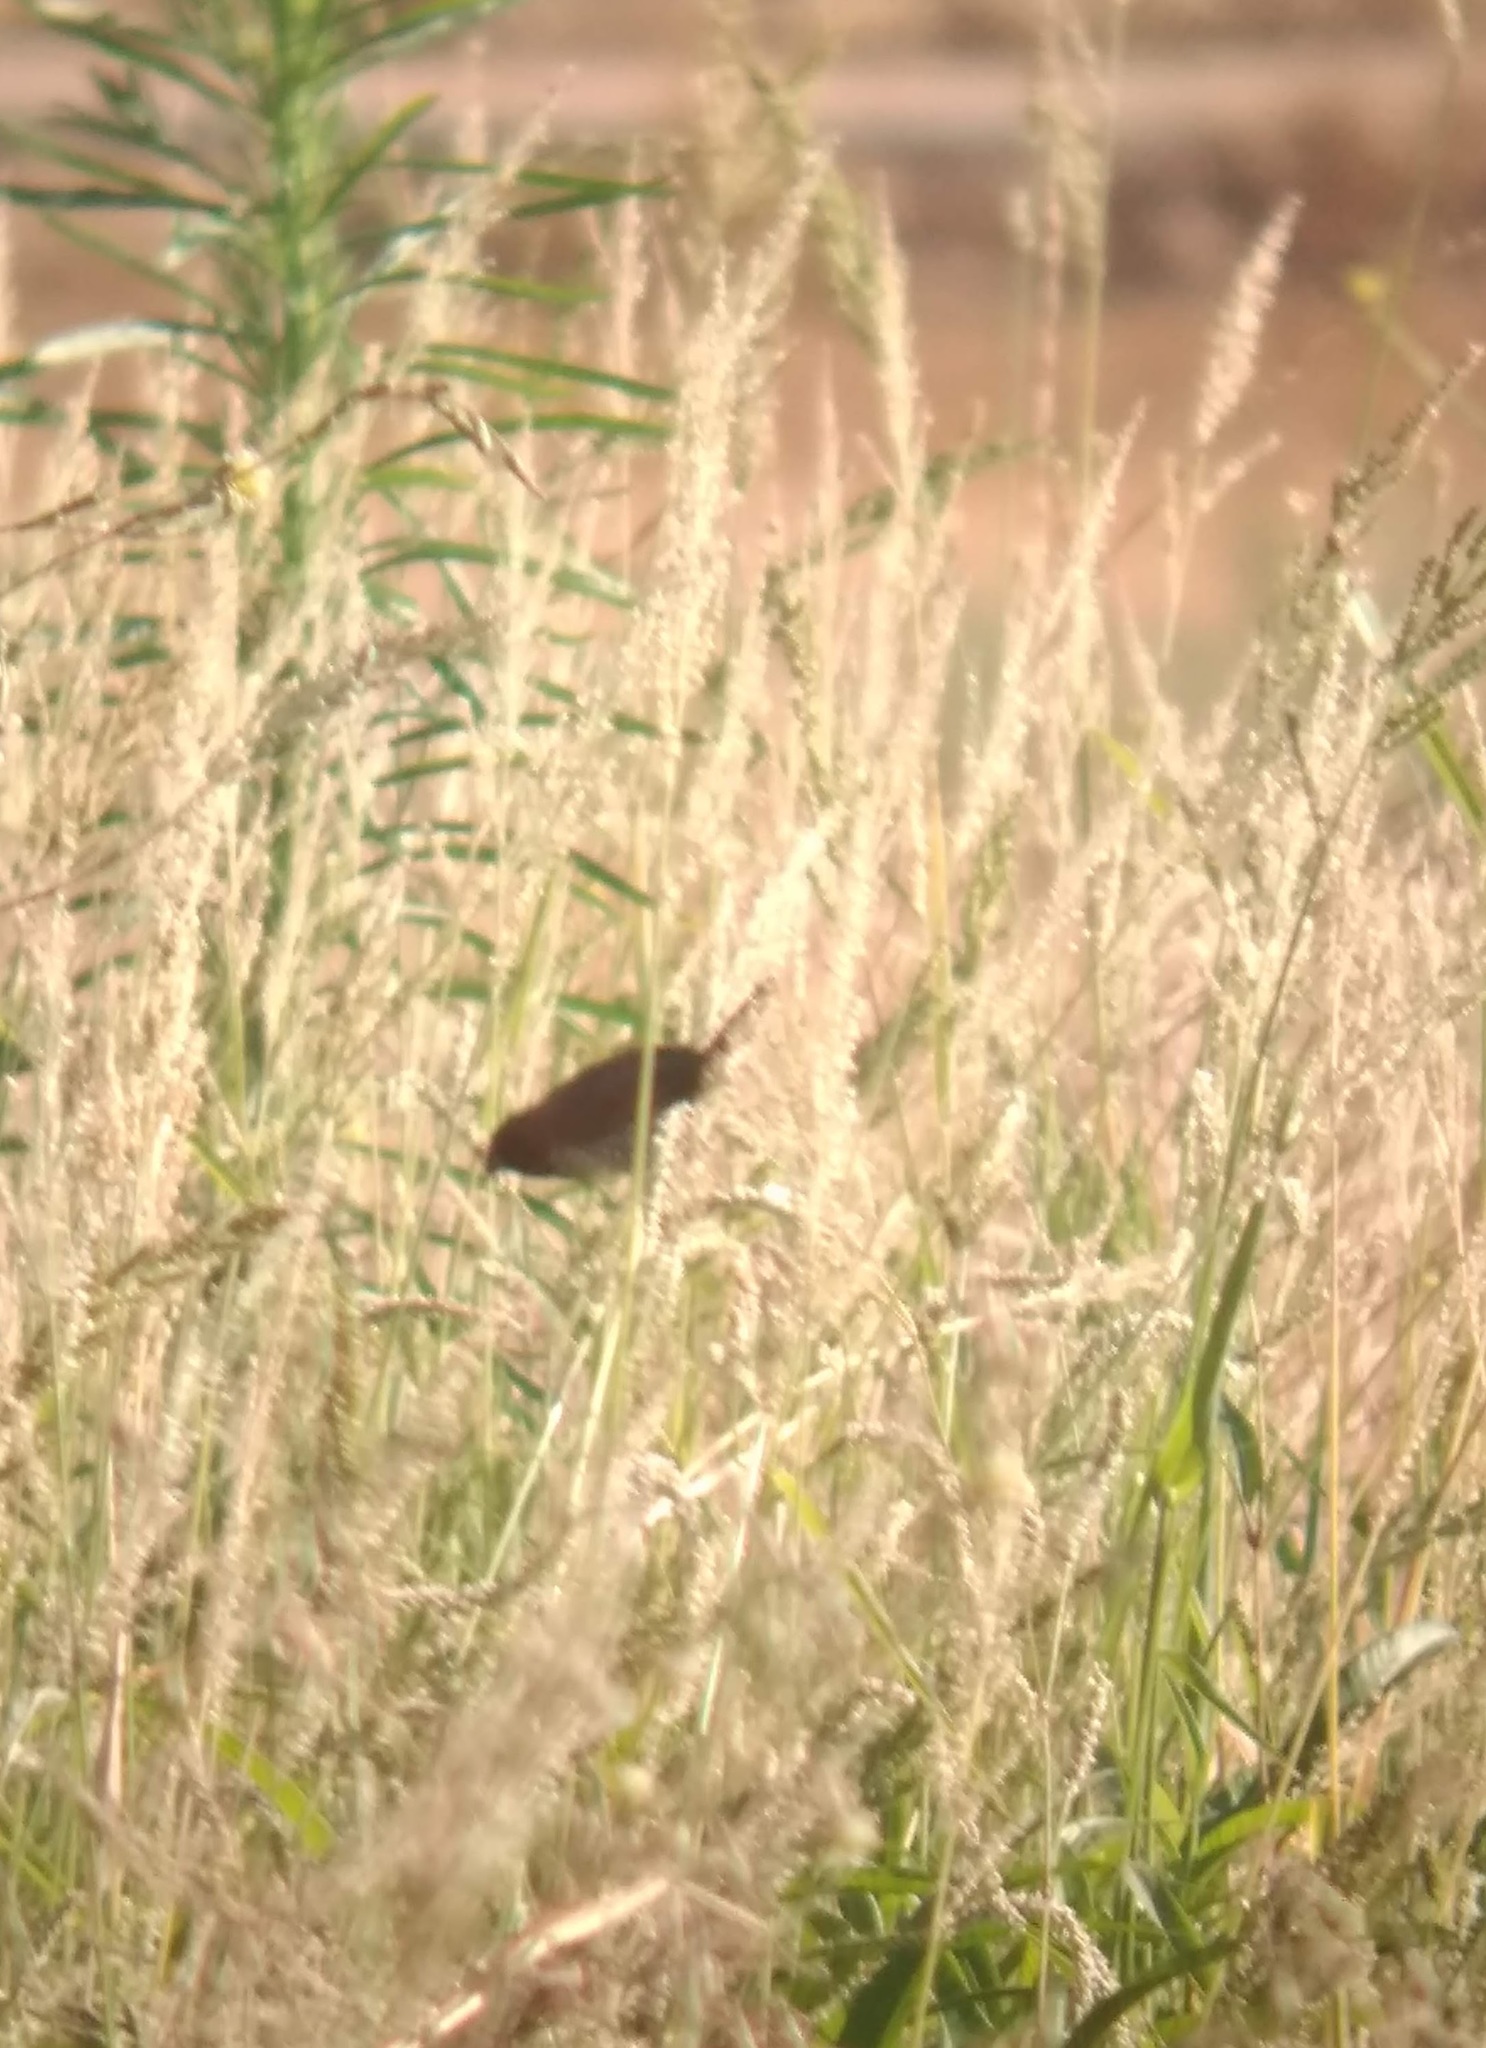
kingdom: Animalia
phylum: Chordata
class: Aves
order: Passeriformes
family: Estrildidae
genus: Lonchura
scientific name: Lonchura punctulata
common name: Scaly-breasted munia
